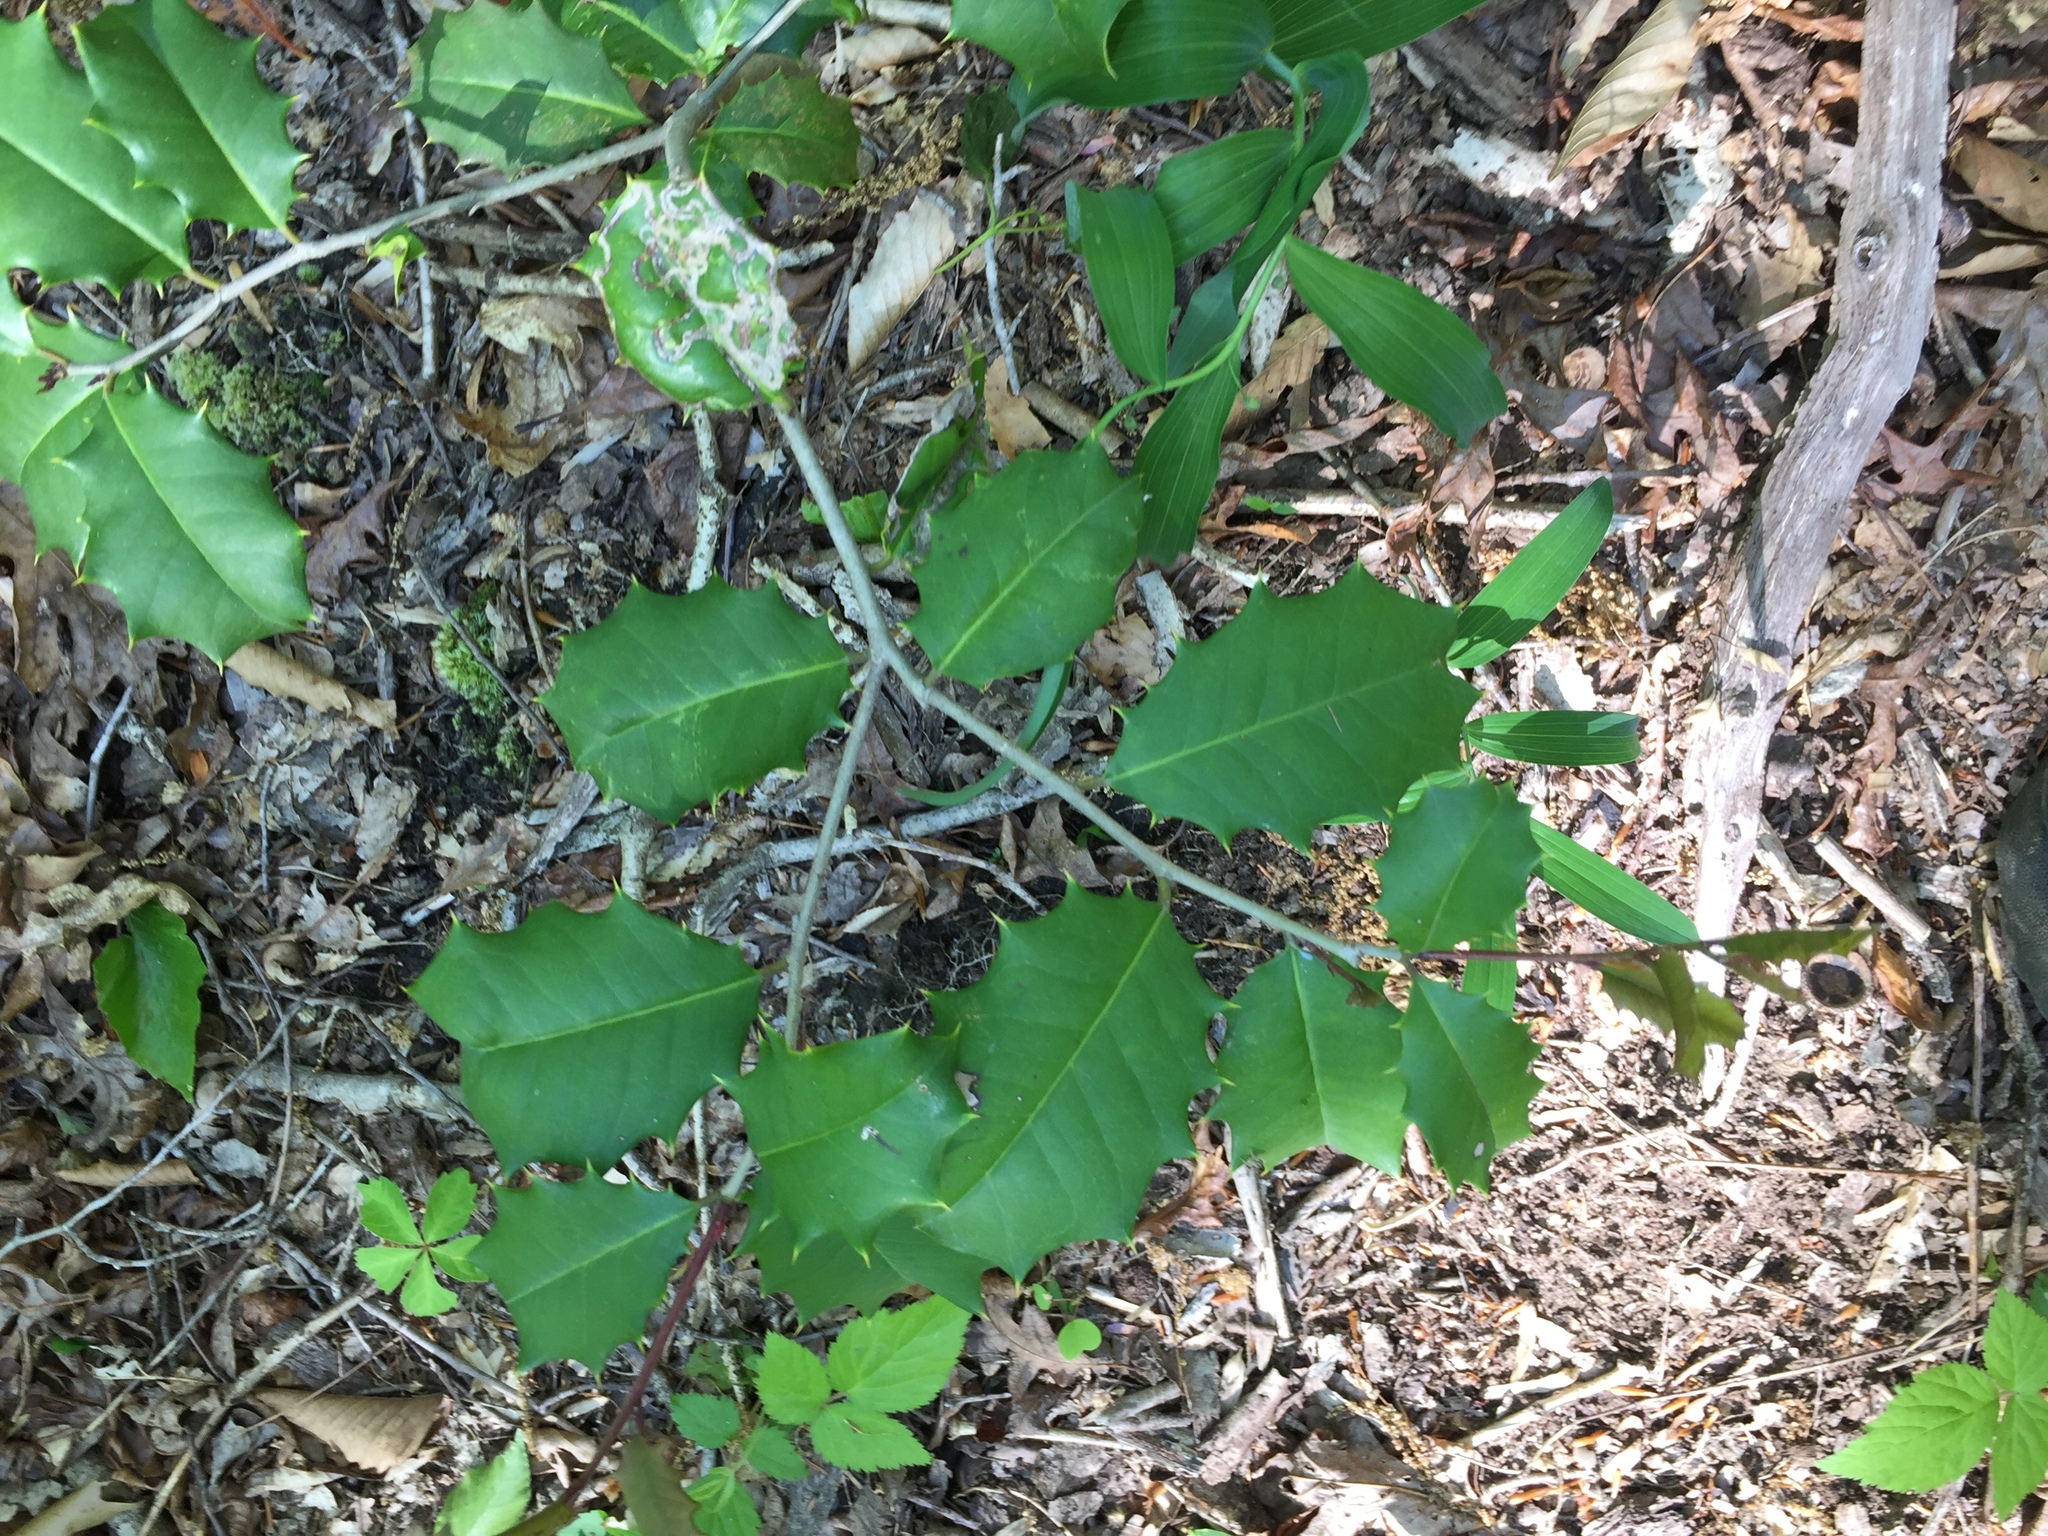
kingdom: Plantae
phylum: Tracheophyta
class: Magnoliopsida
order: Aquifoliales
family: Aquifoliaceae
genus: Ilex
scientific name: Ilex opaca
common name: American holly
